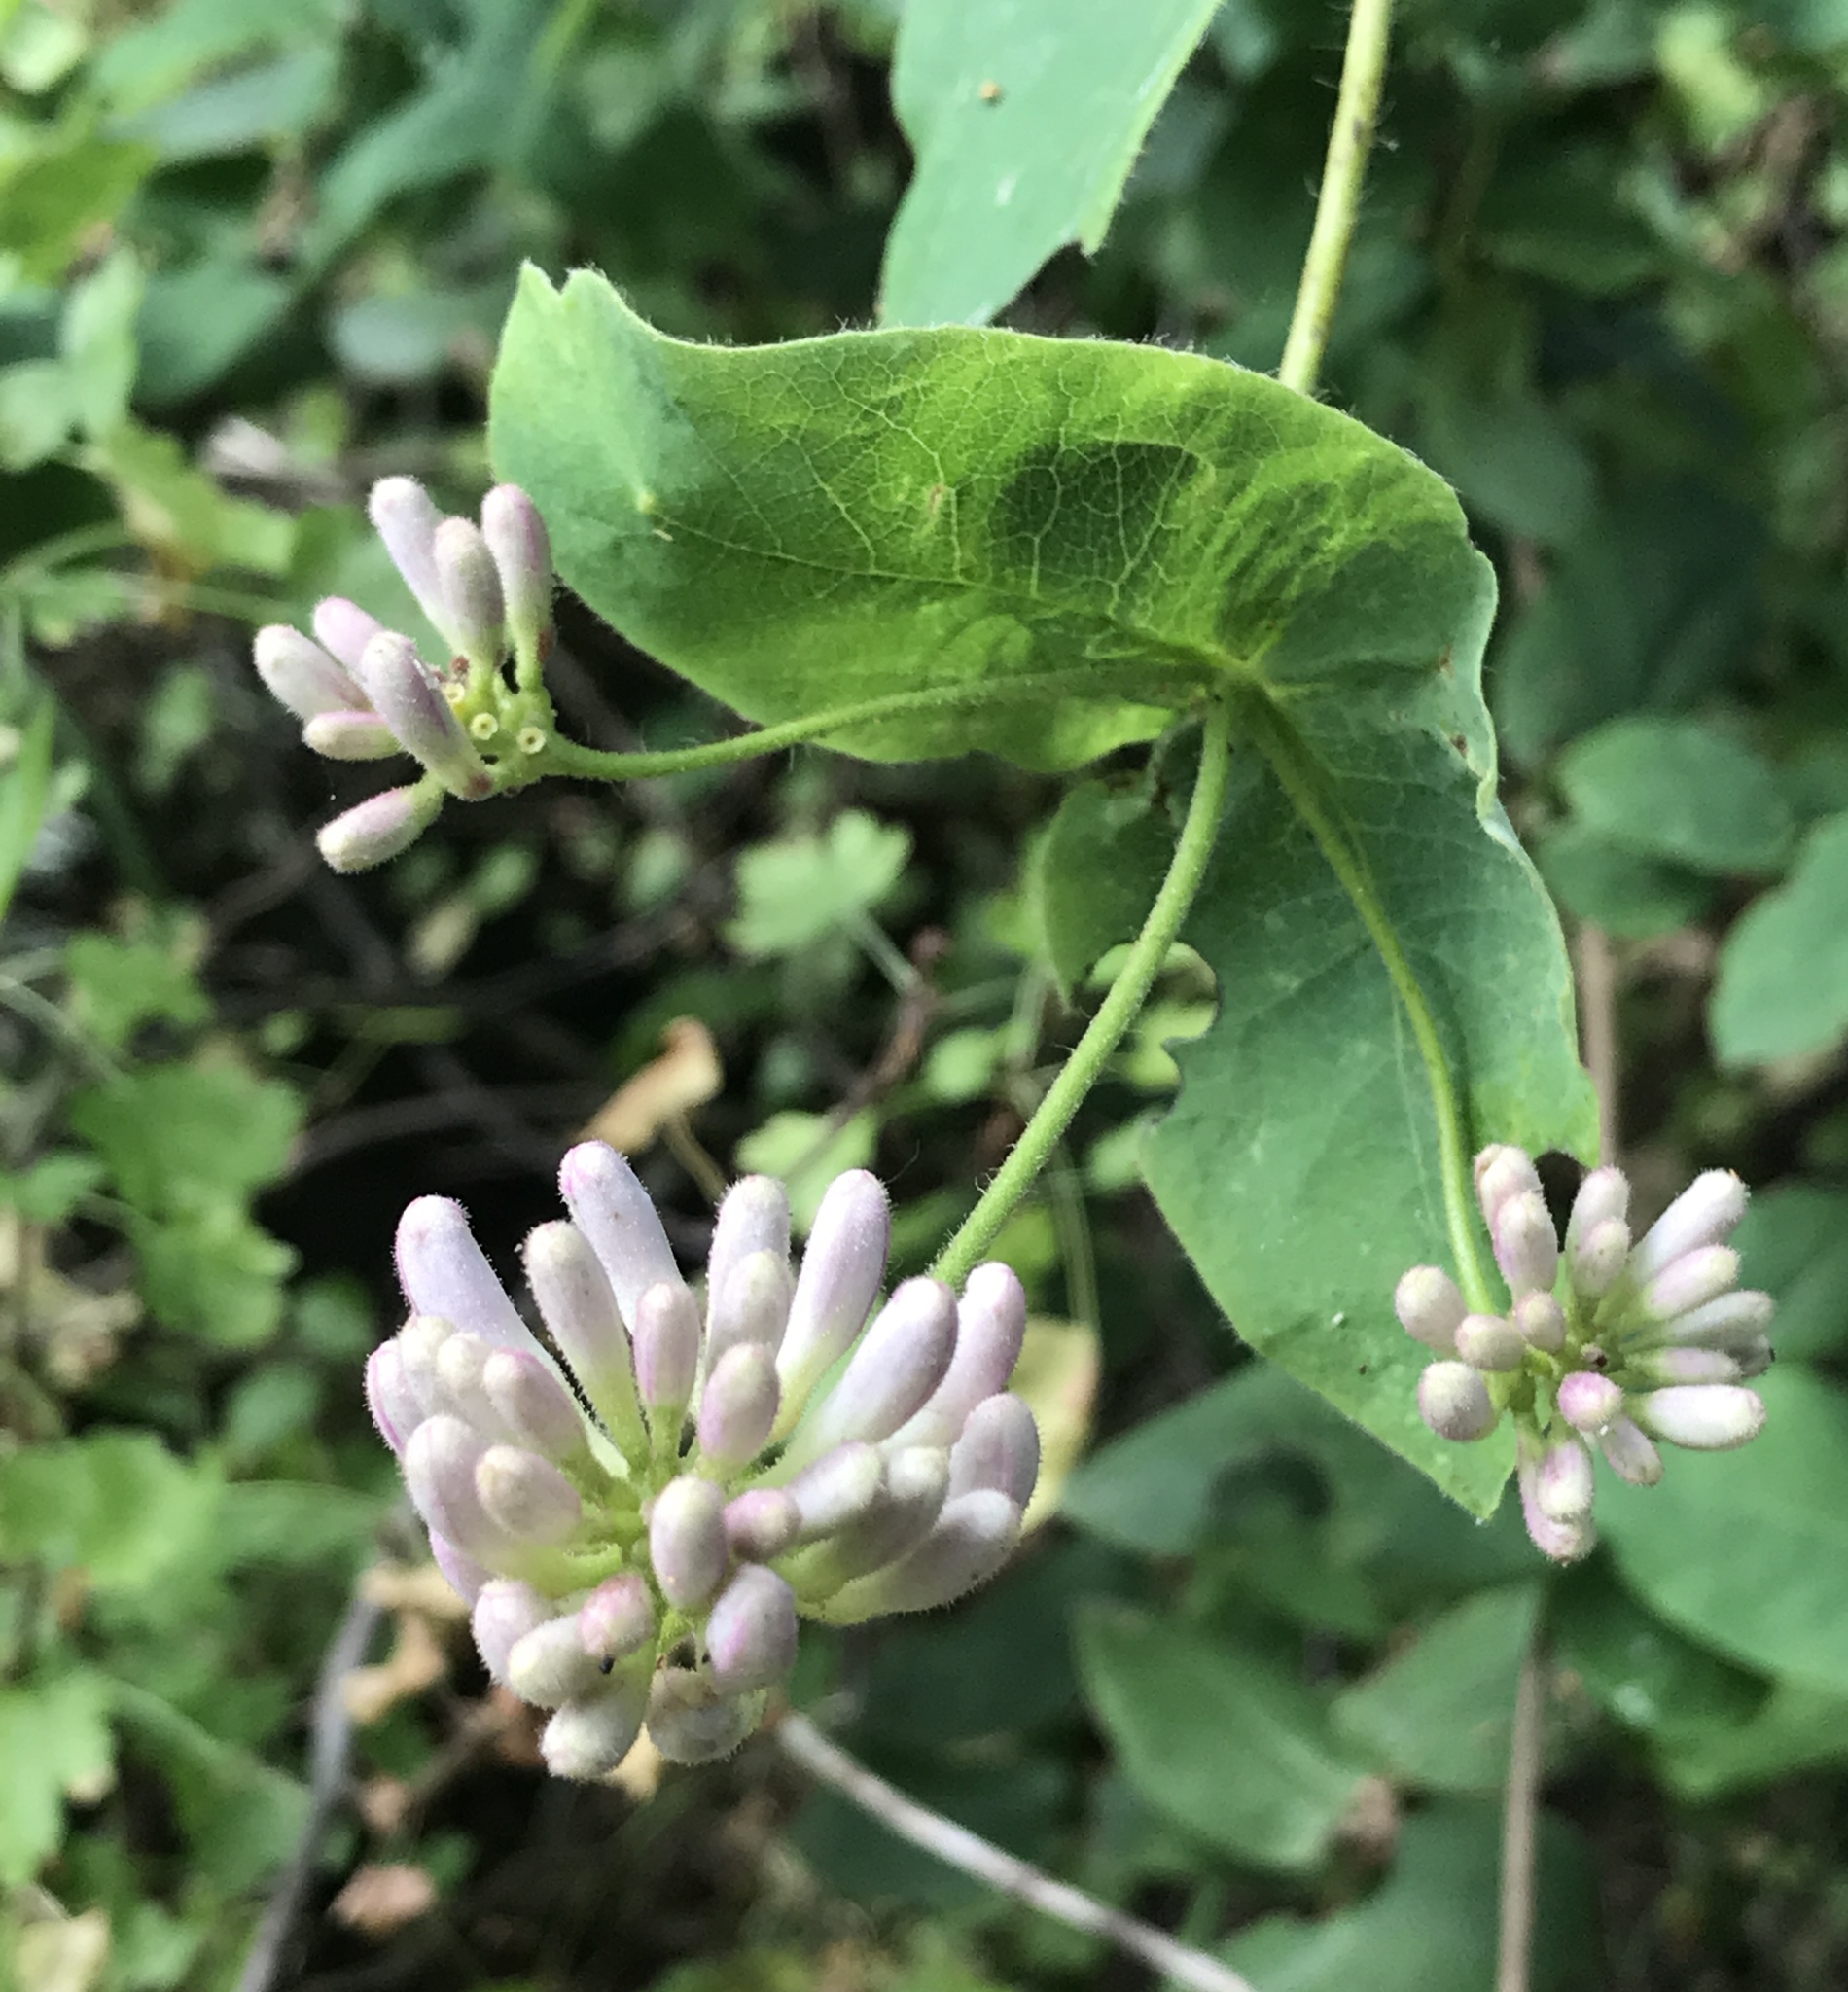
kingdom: Plantae
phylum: Tracheophyta
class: Magnoliopsida
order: Dipsacales
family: Caprifoliaceae
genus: Lonicera
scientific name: Lonicera hispidula
